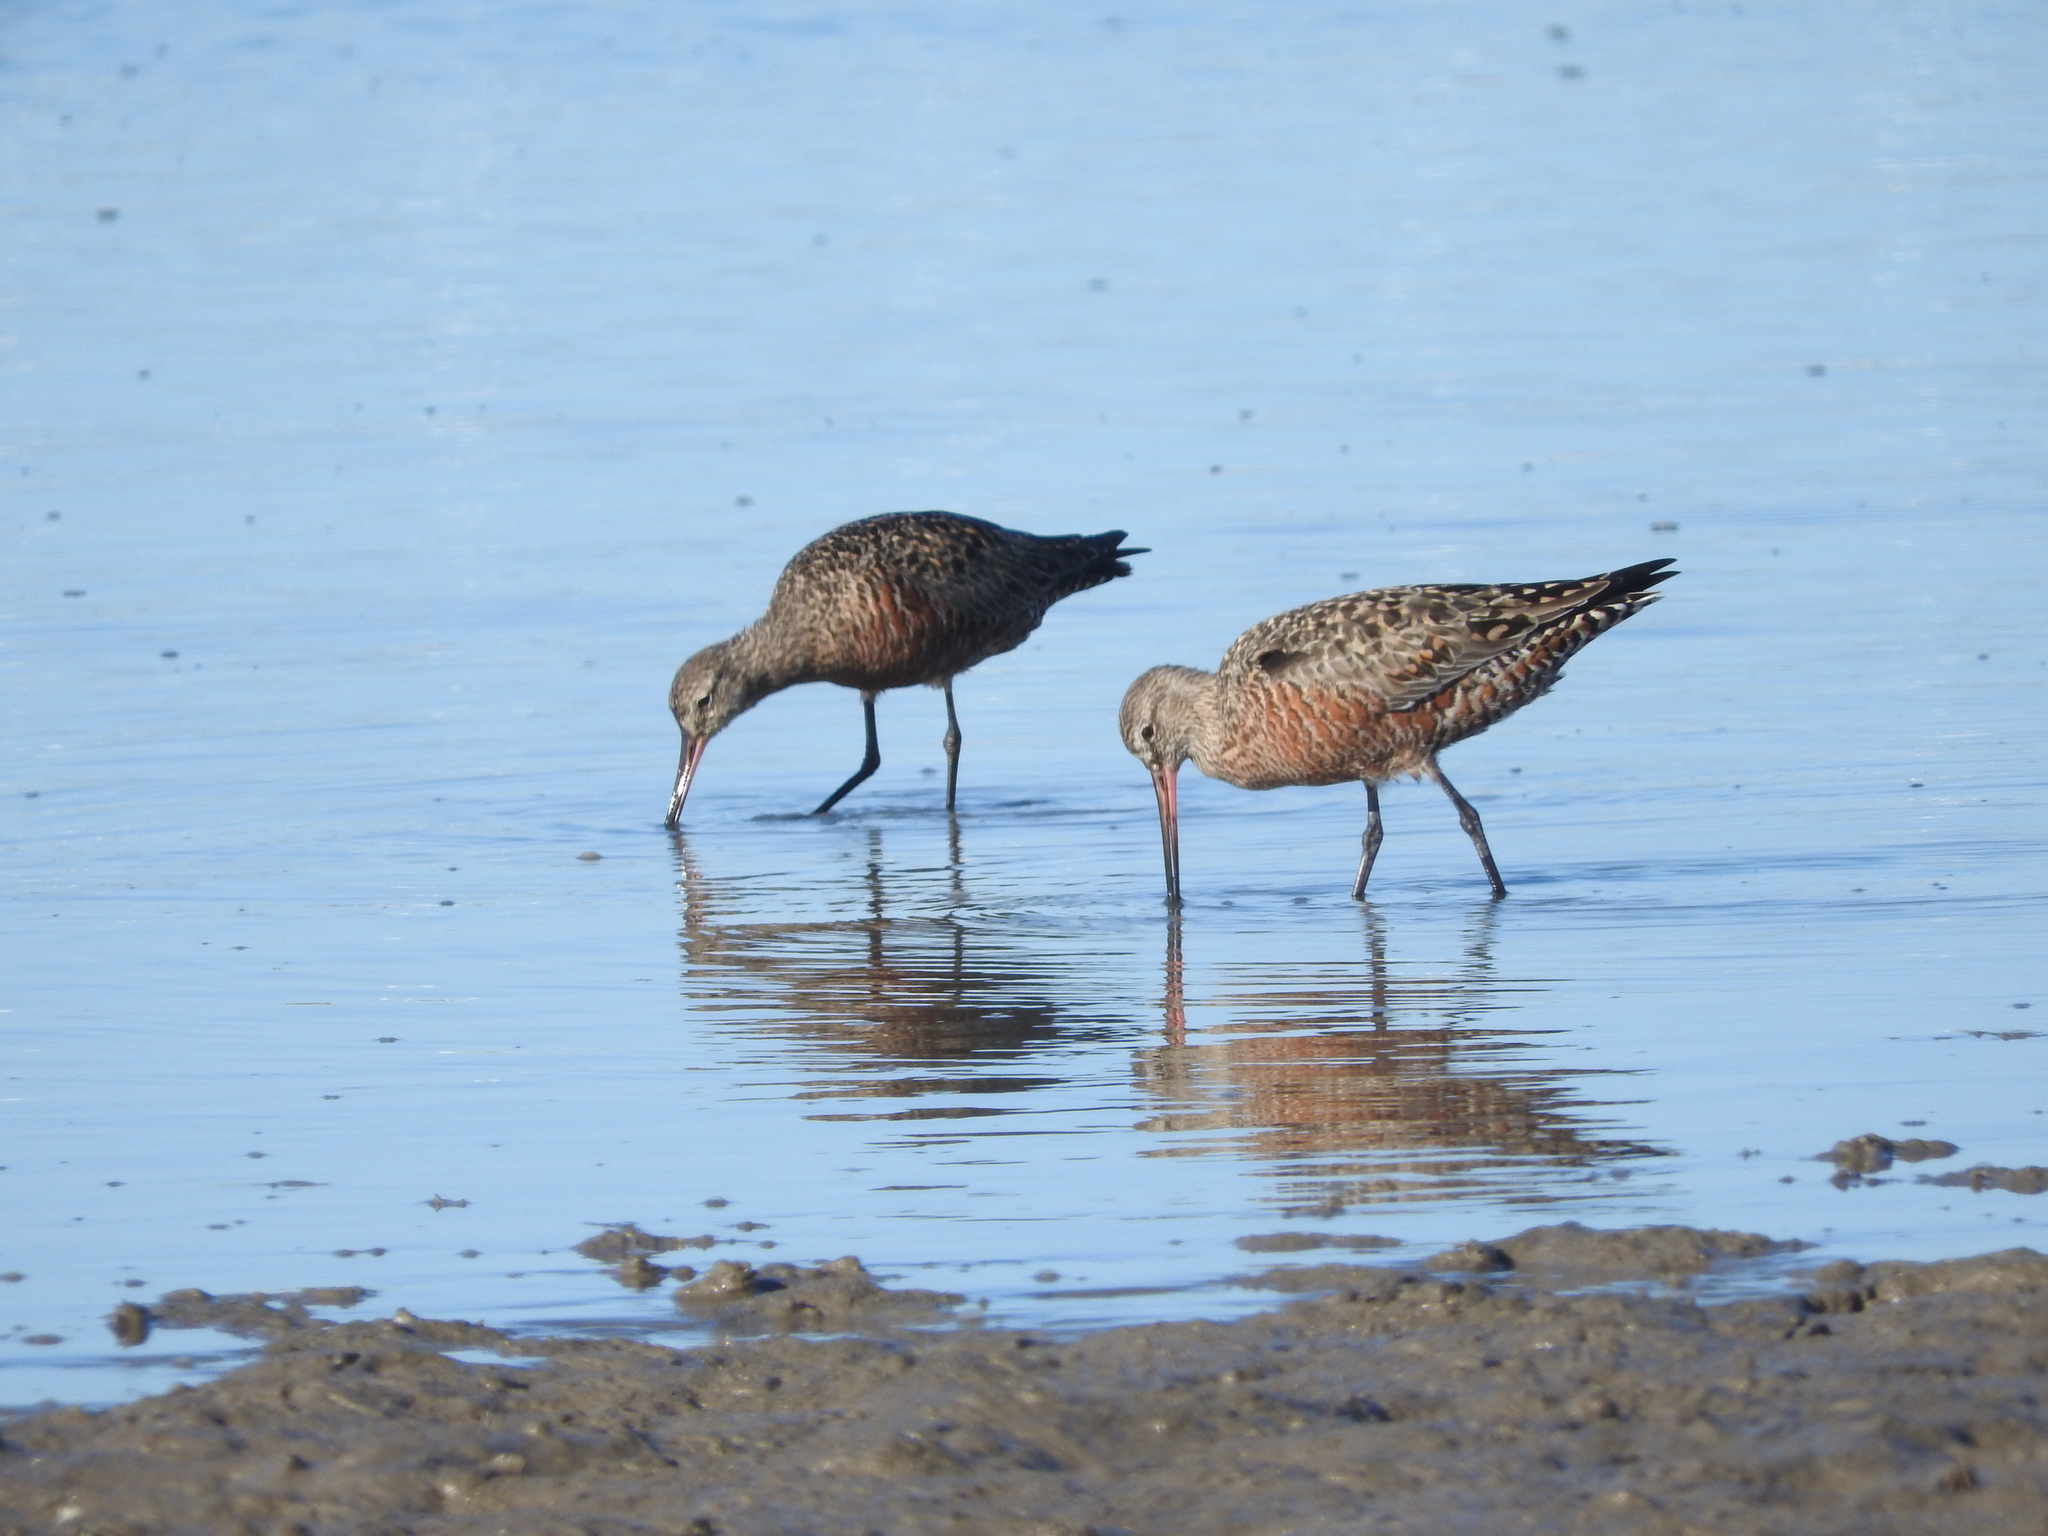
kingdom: Animalia
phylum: Chordata
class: Aves
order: Charadriiformes
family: Scolopacidae
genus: Limosa
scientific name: Limosa haemastica
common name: Hudsonian godwit
